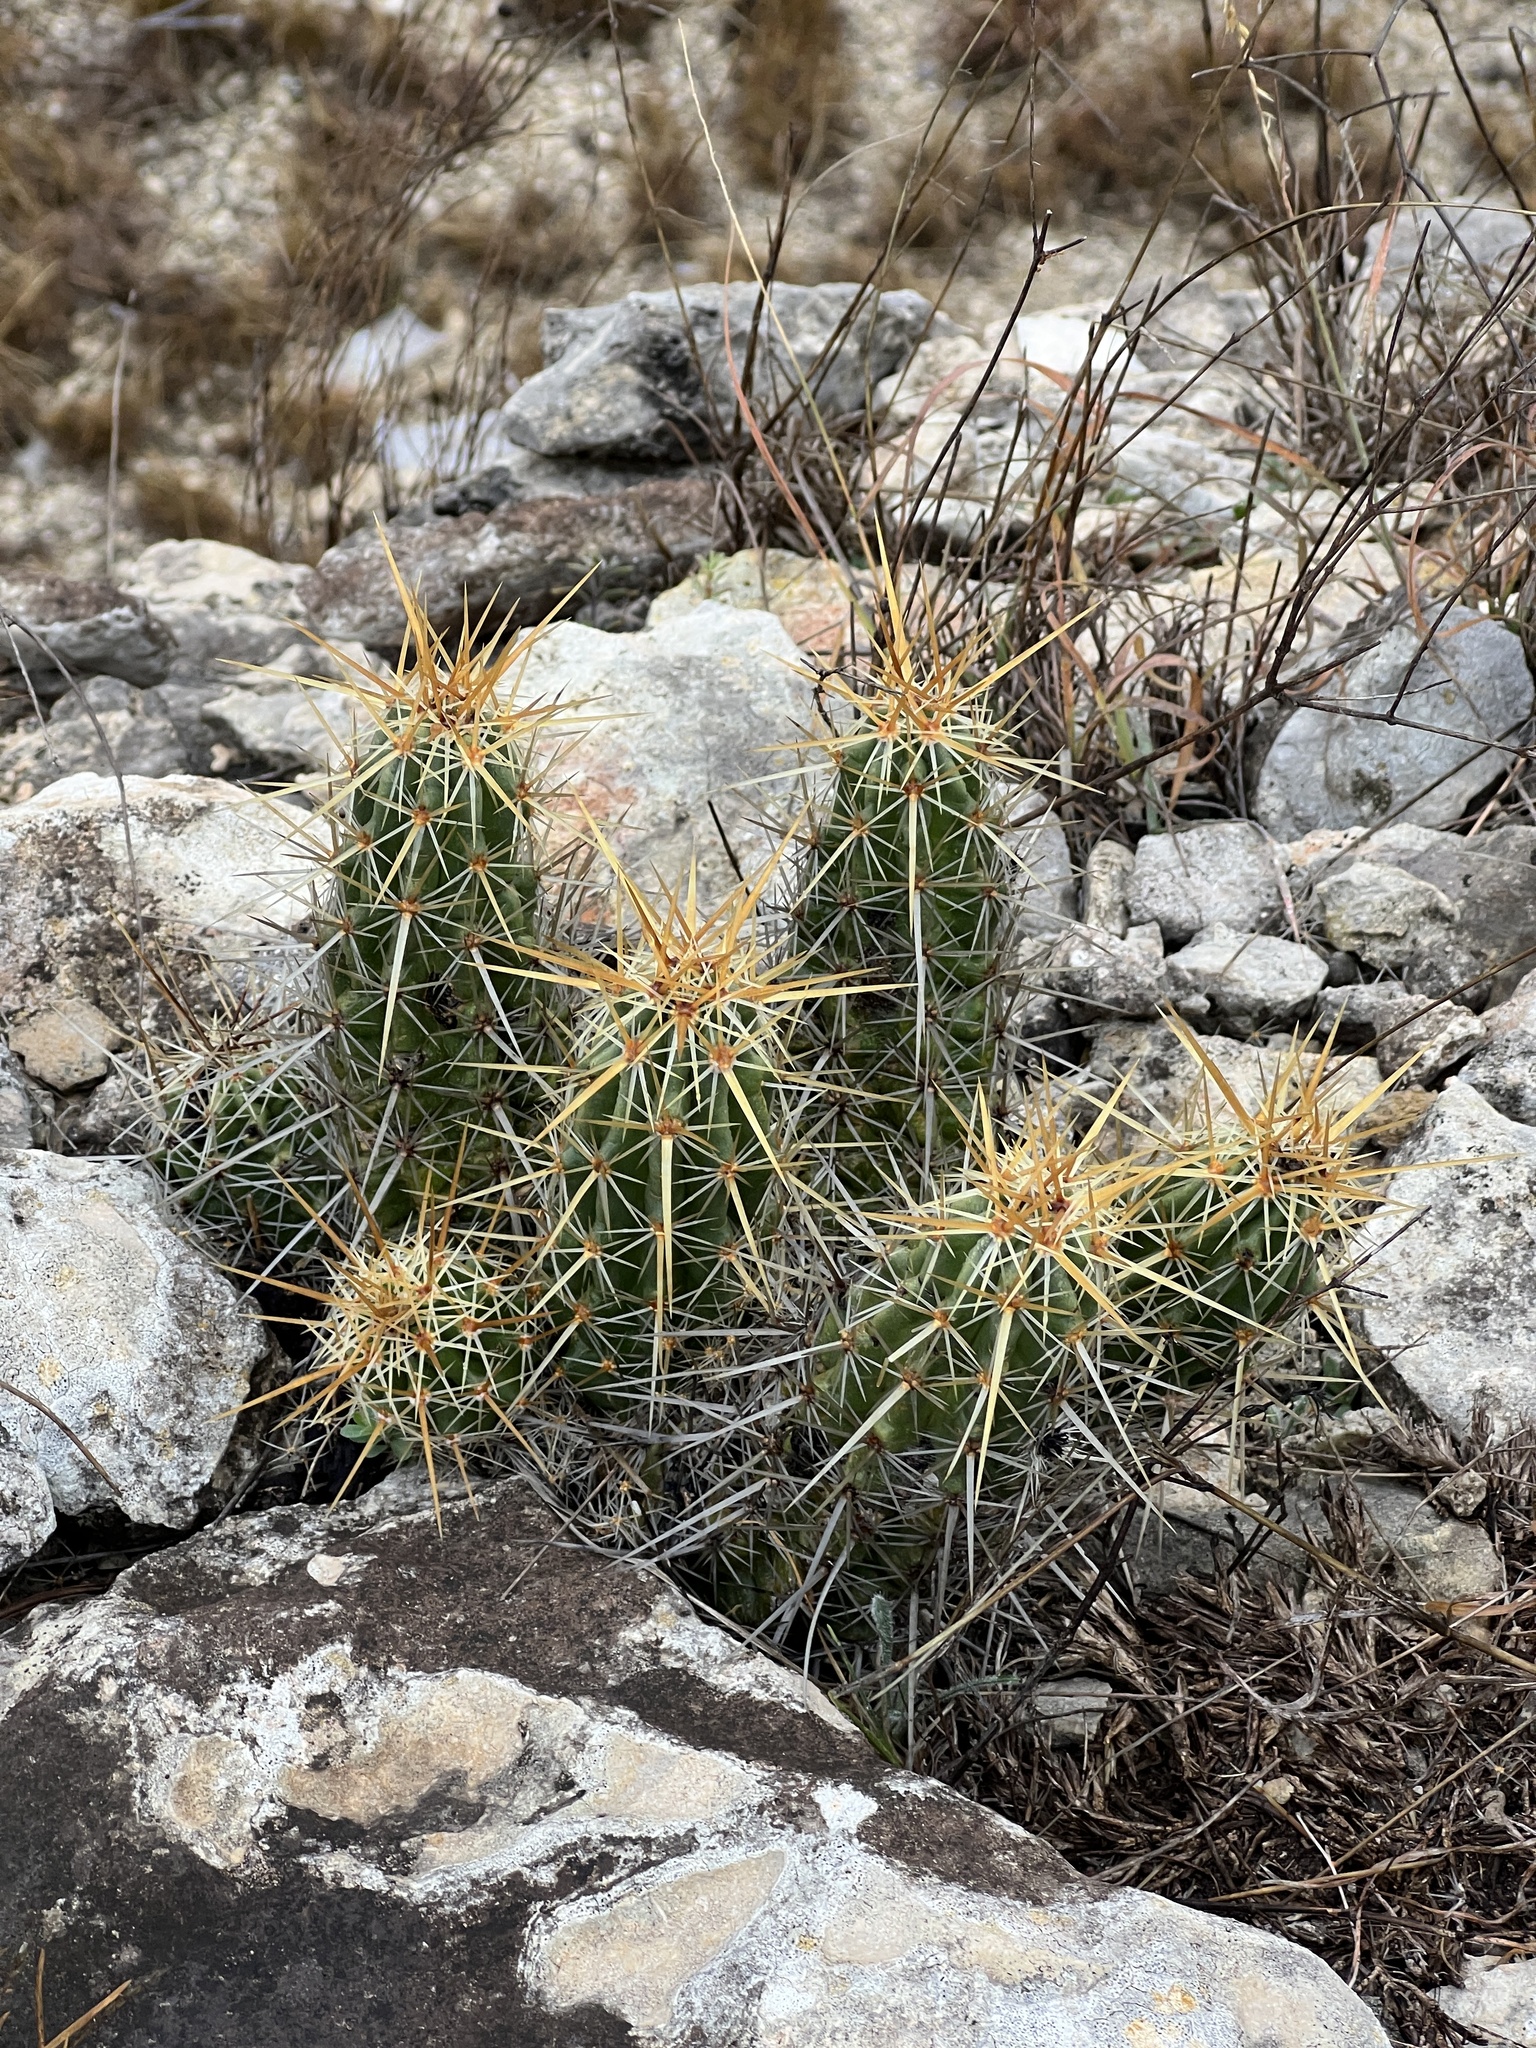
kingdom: Plantae
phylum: Tracheophyta
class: Magnoliopsida
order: Caryophyllales
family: Cactaceae
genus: Echinocereus
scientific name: Echinocereus enneacanthus
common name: Pitaya
